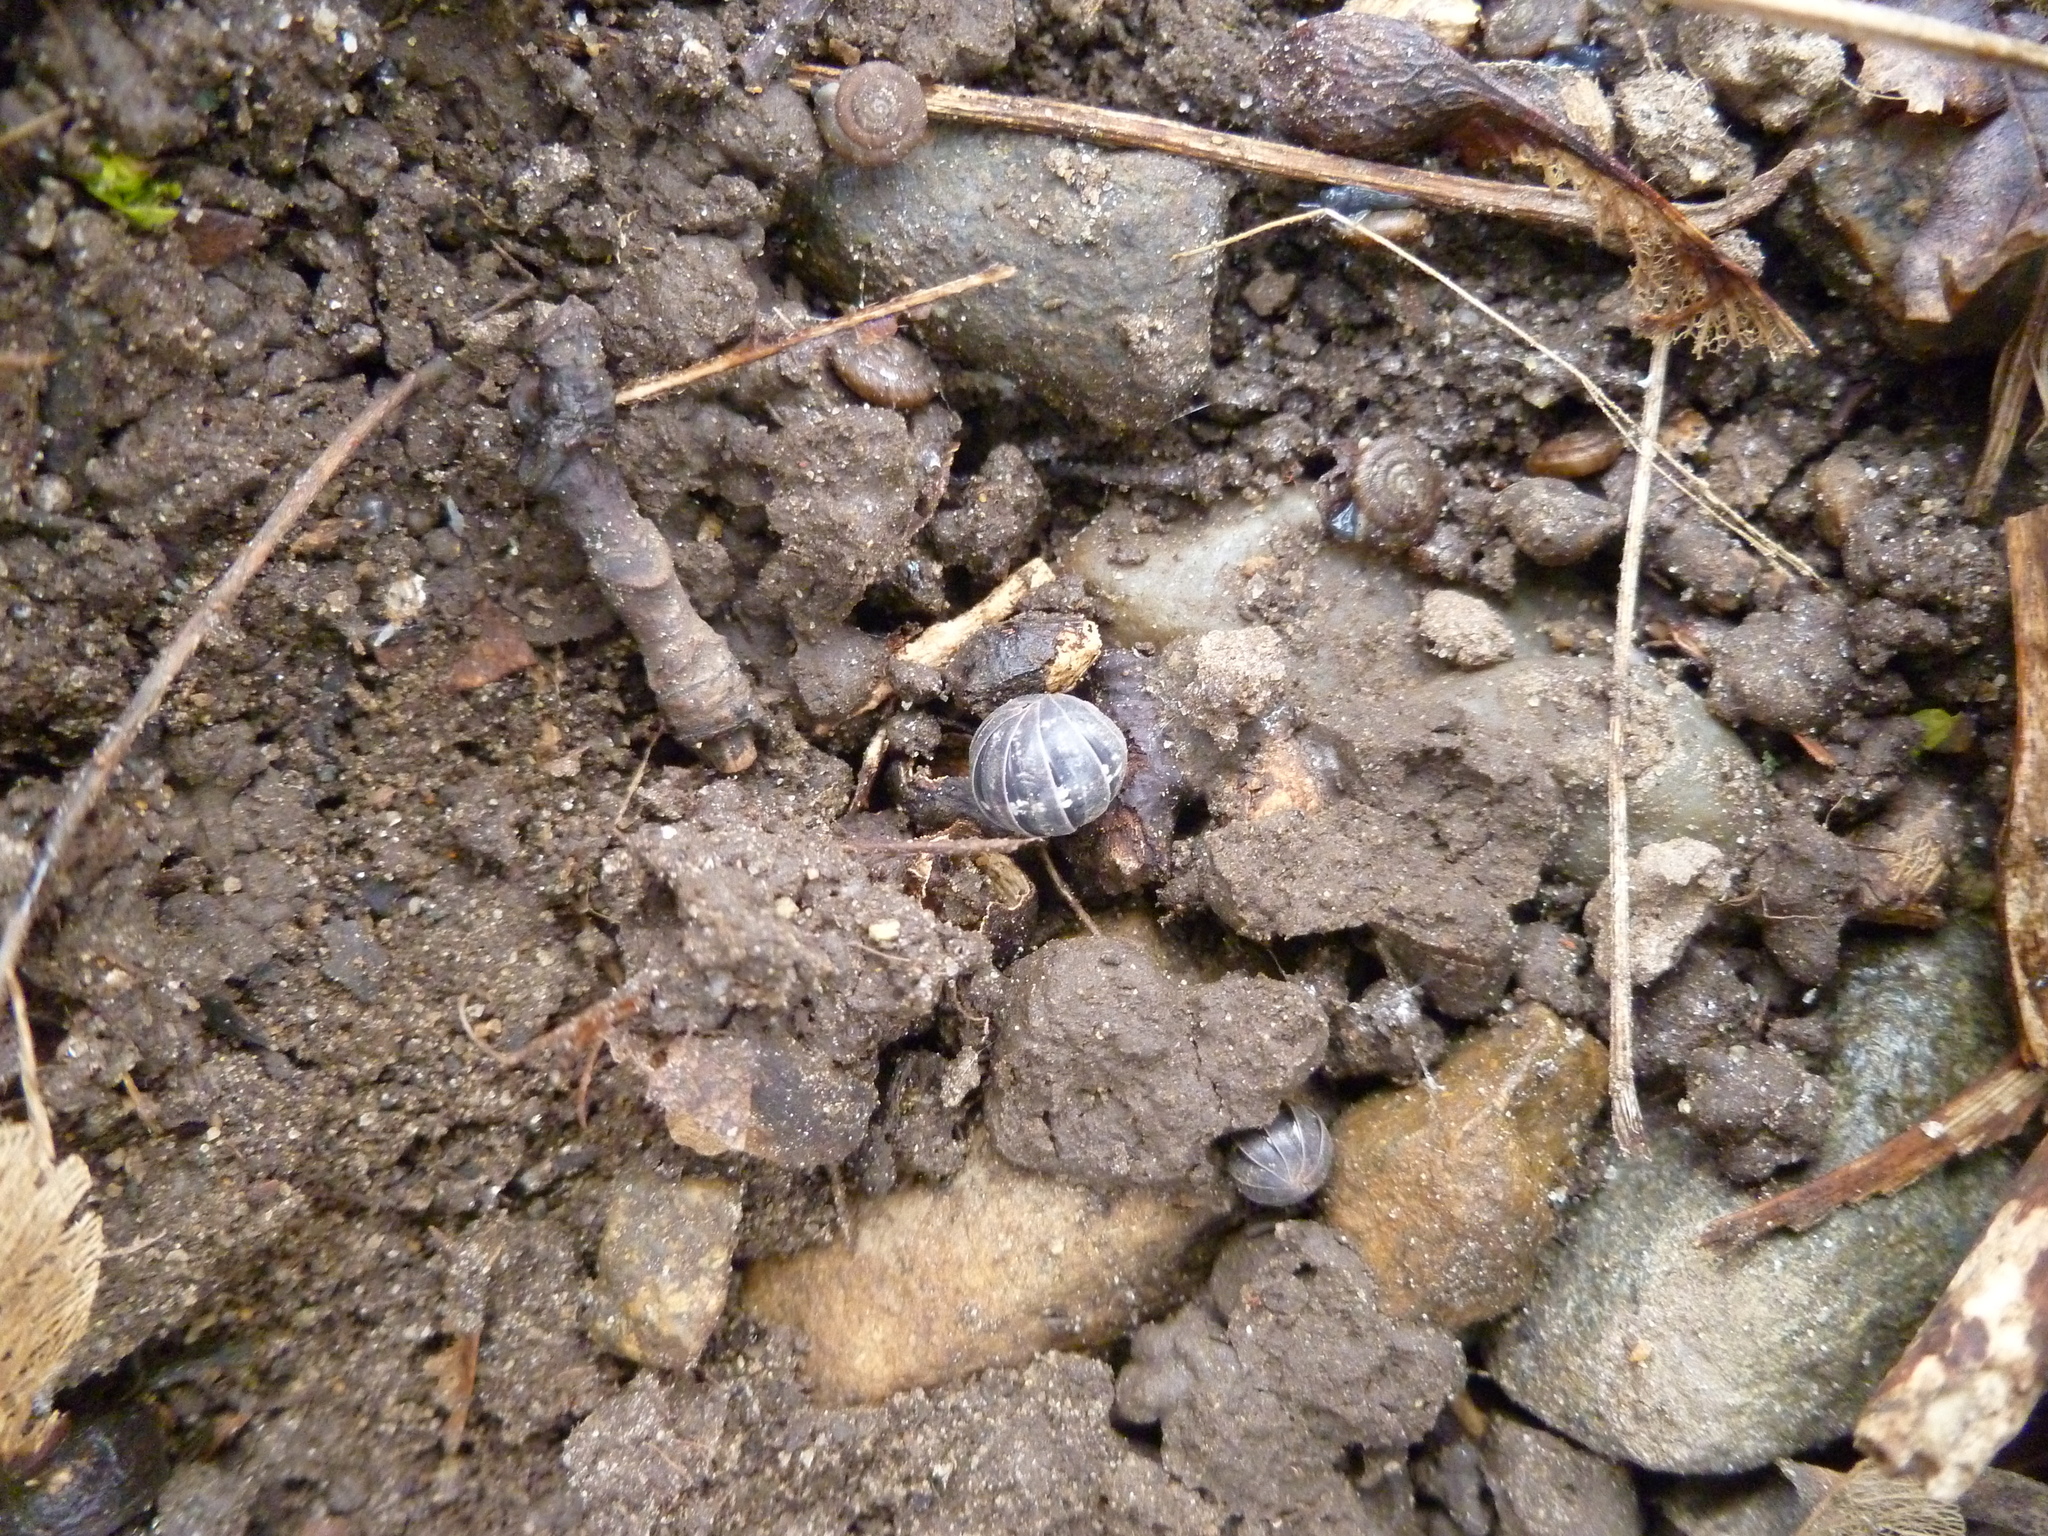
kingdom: Animalia
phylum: Arthropoda
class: Malacostraca
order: Isopoda
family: Armadillidiidae
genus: Armadillidium
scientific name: Armadillidium vulgare
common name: Common pill woodlouse
